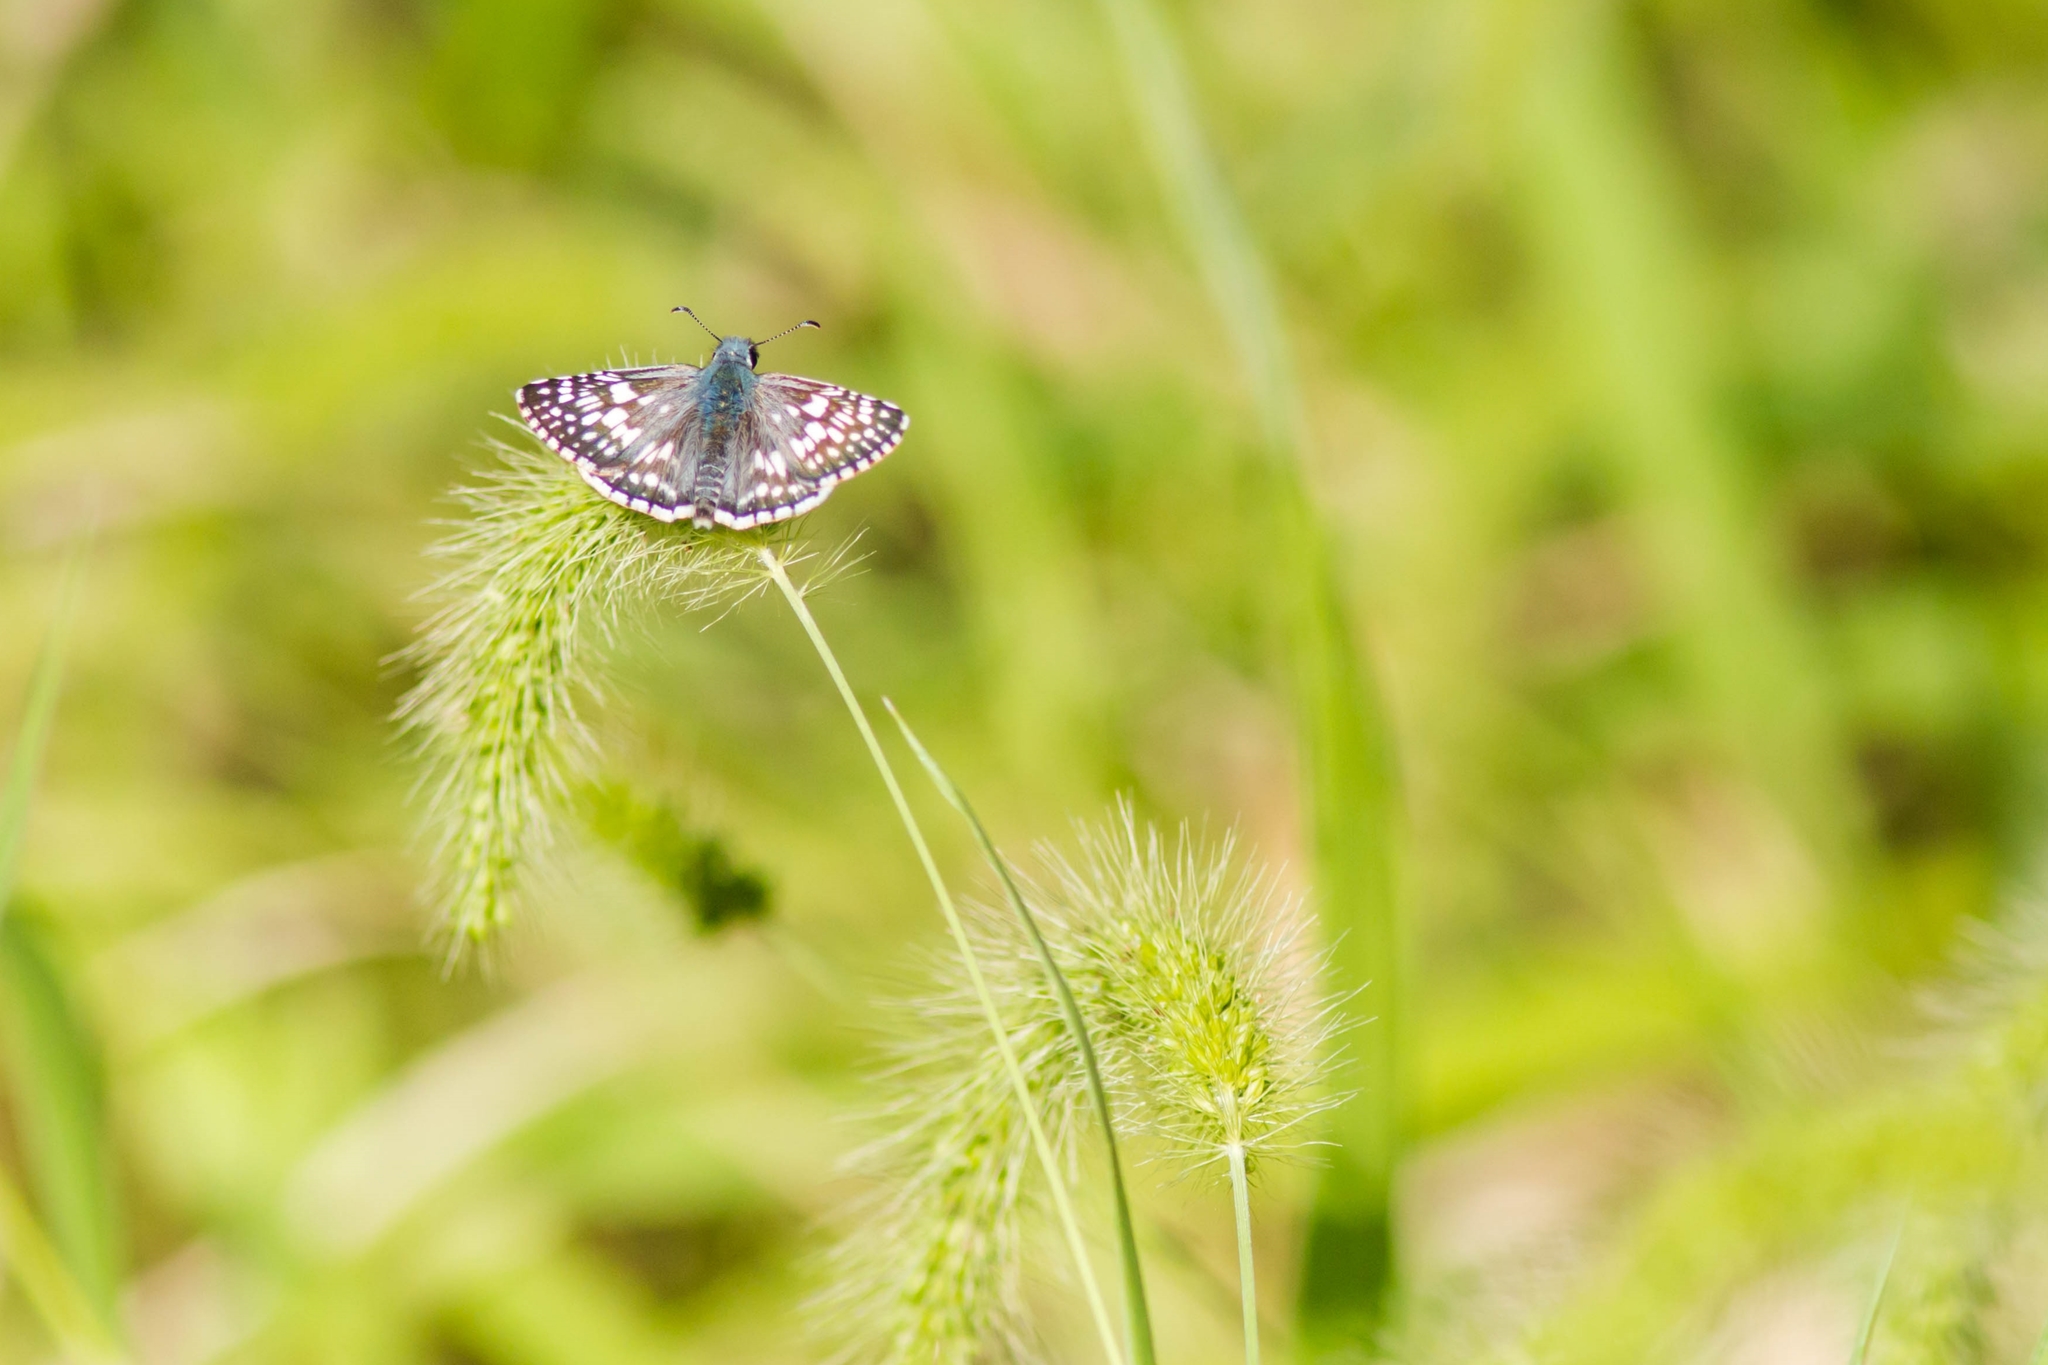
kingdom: Animalia
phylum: Arthropoda
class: Insecta
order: Lepidoptera
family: Hesperiidae
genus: Burnsius
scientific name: Burnsius communis
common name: Common checkered-skipper
